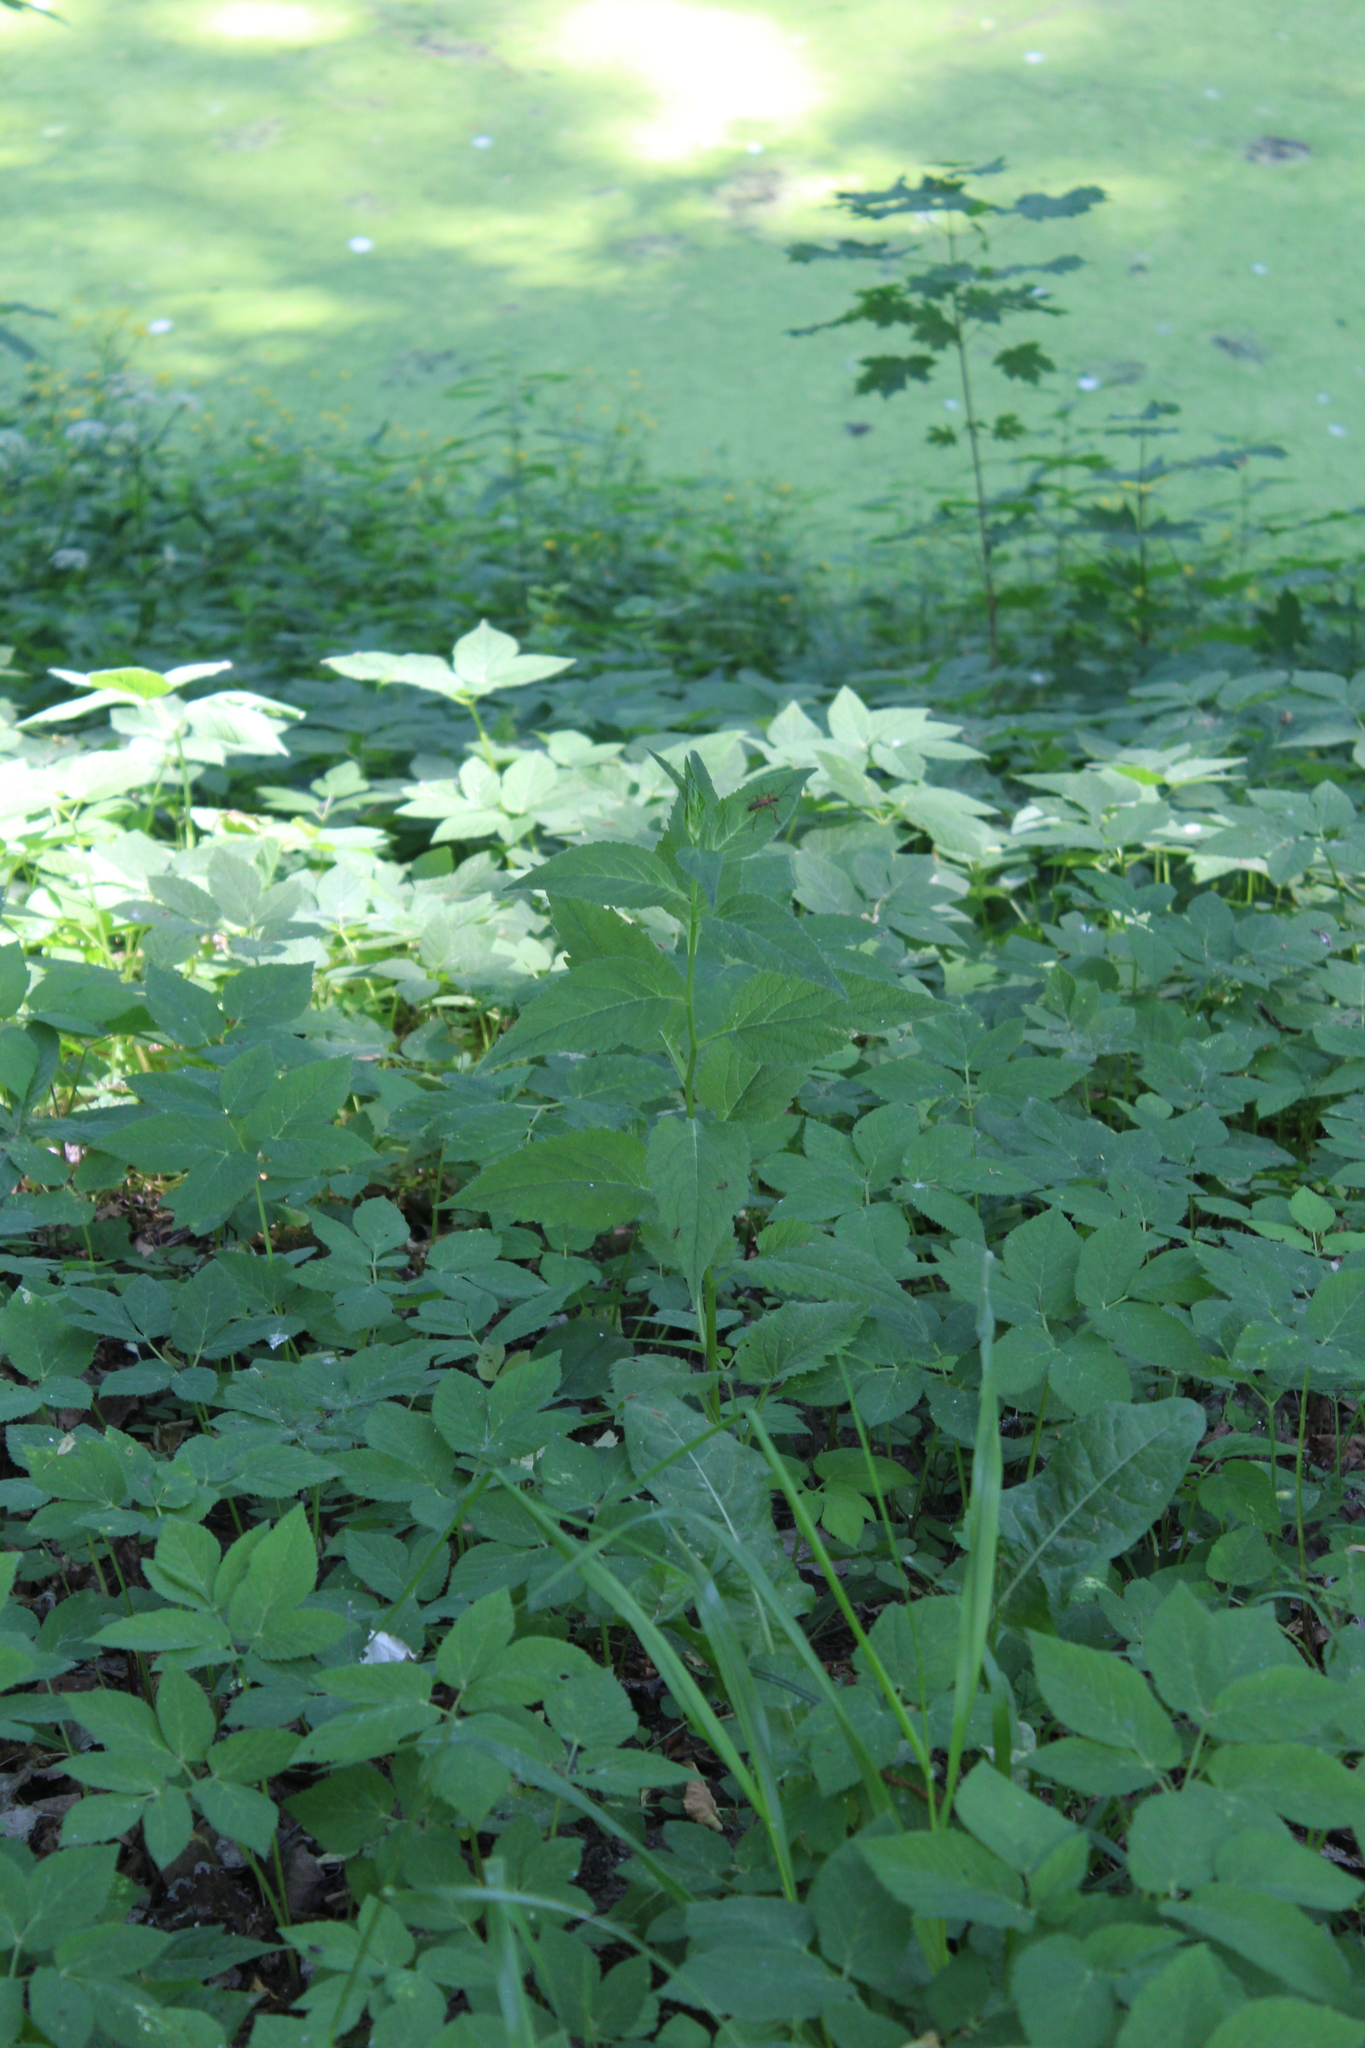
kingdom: Plantae
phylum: Tracheophyta
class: Magnoliopsida
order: Asterales
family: Campanulaceae
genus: Campanula
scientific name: Campanula latifolia
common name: Giant bellflower
